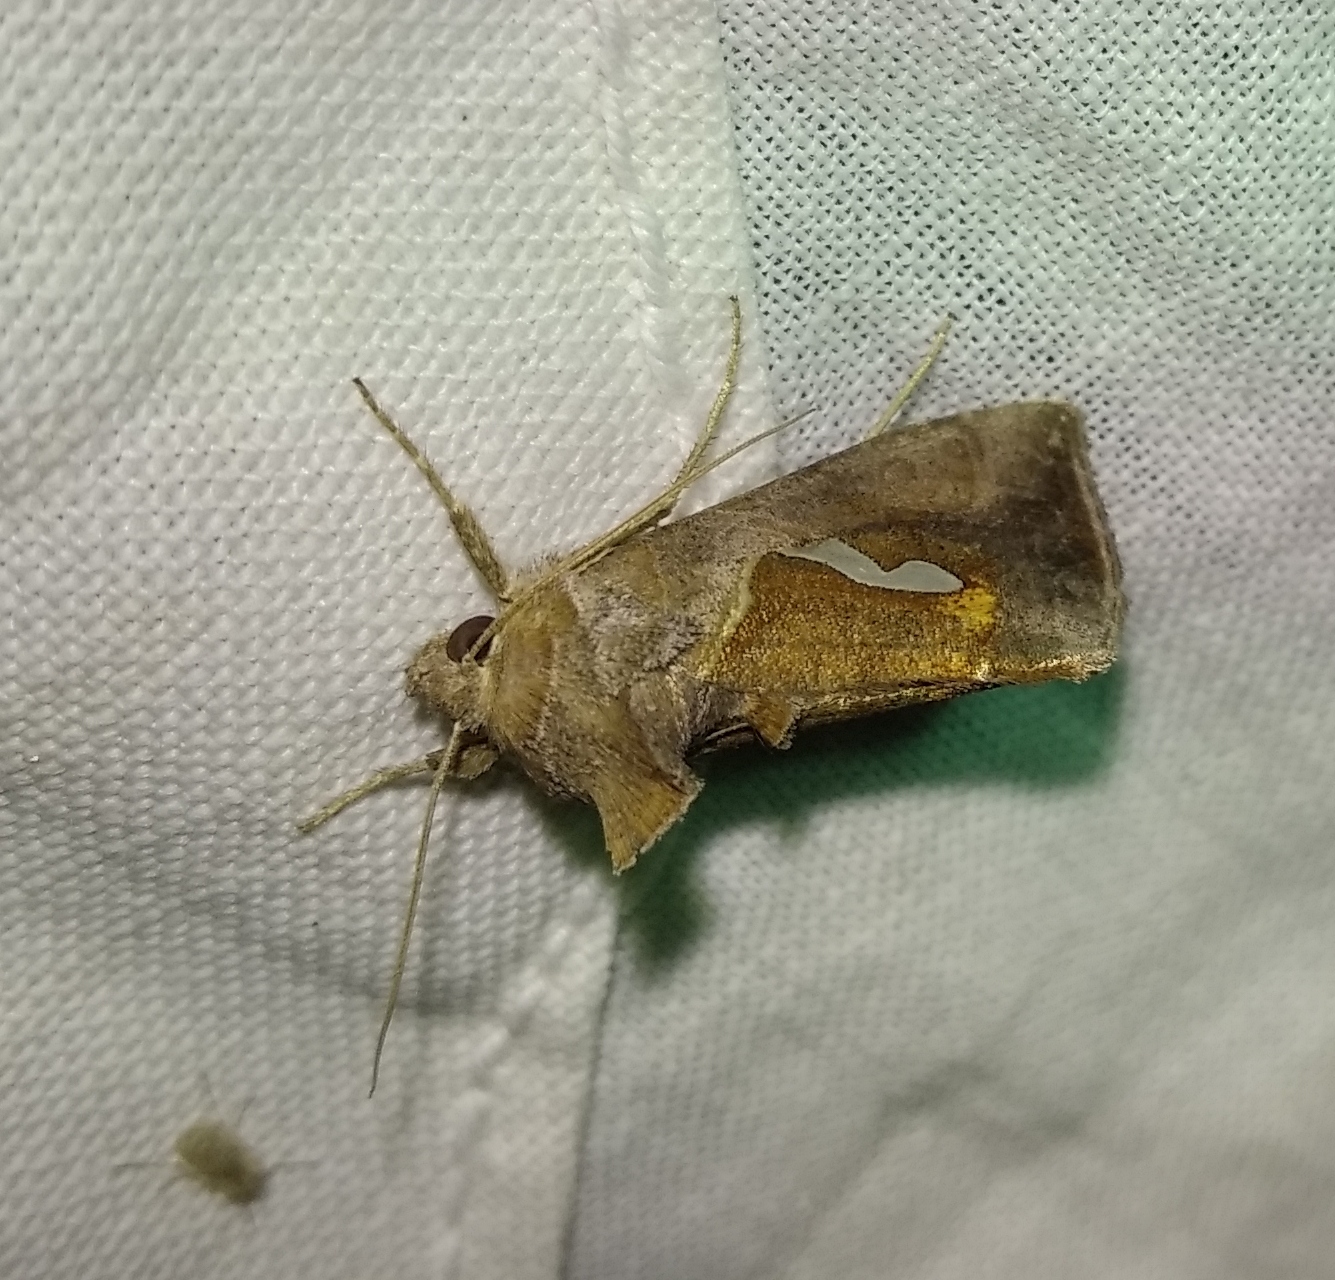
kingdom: Animalia
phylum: Arthropoda
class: Insecta
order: Lepidoptera
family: Noctuidae
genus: Macdunnoughia
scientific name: Macdunnoughia confusa
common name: Dewick's plusia
